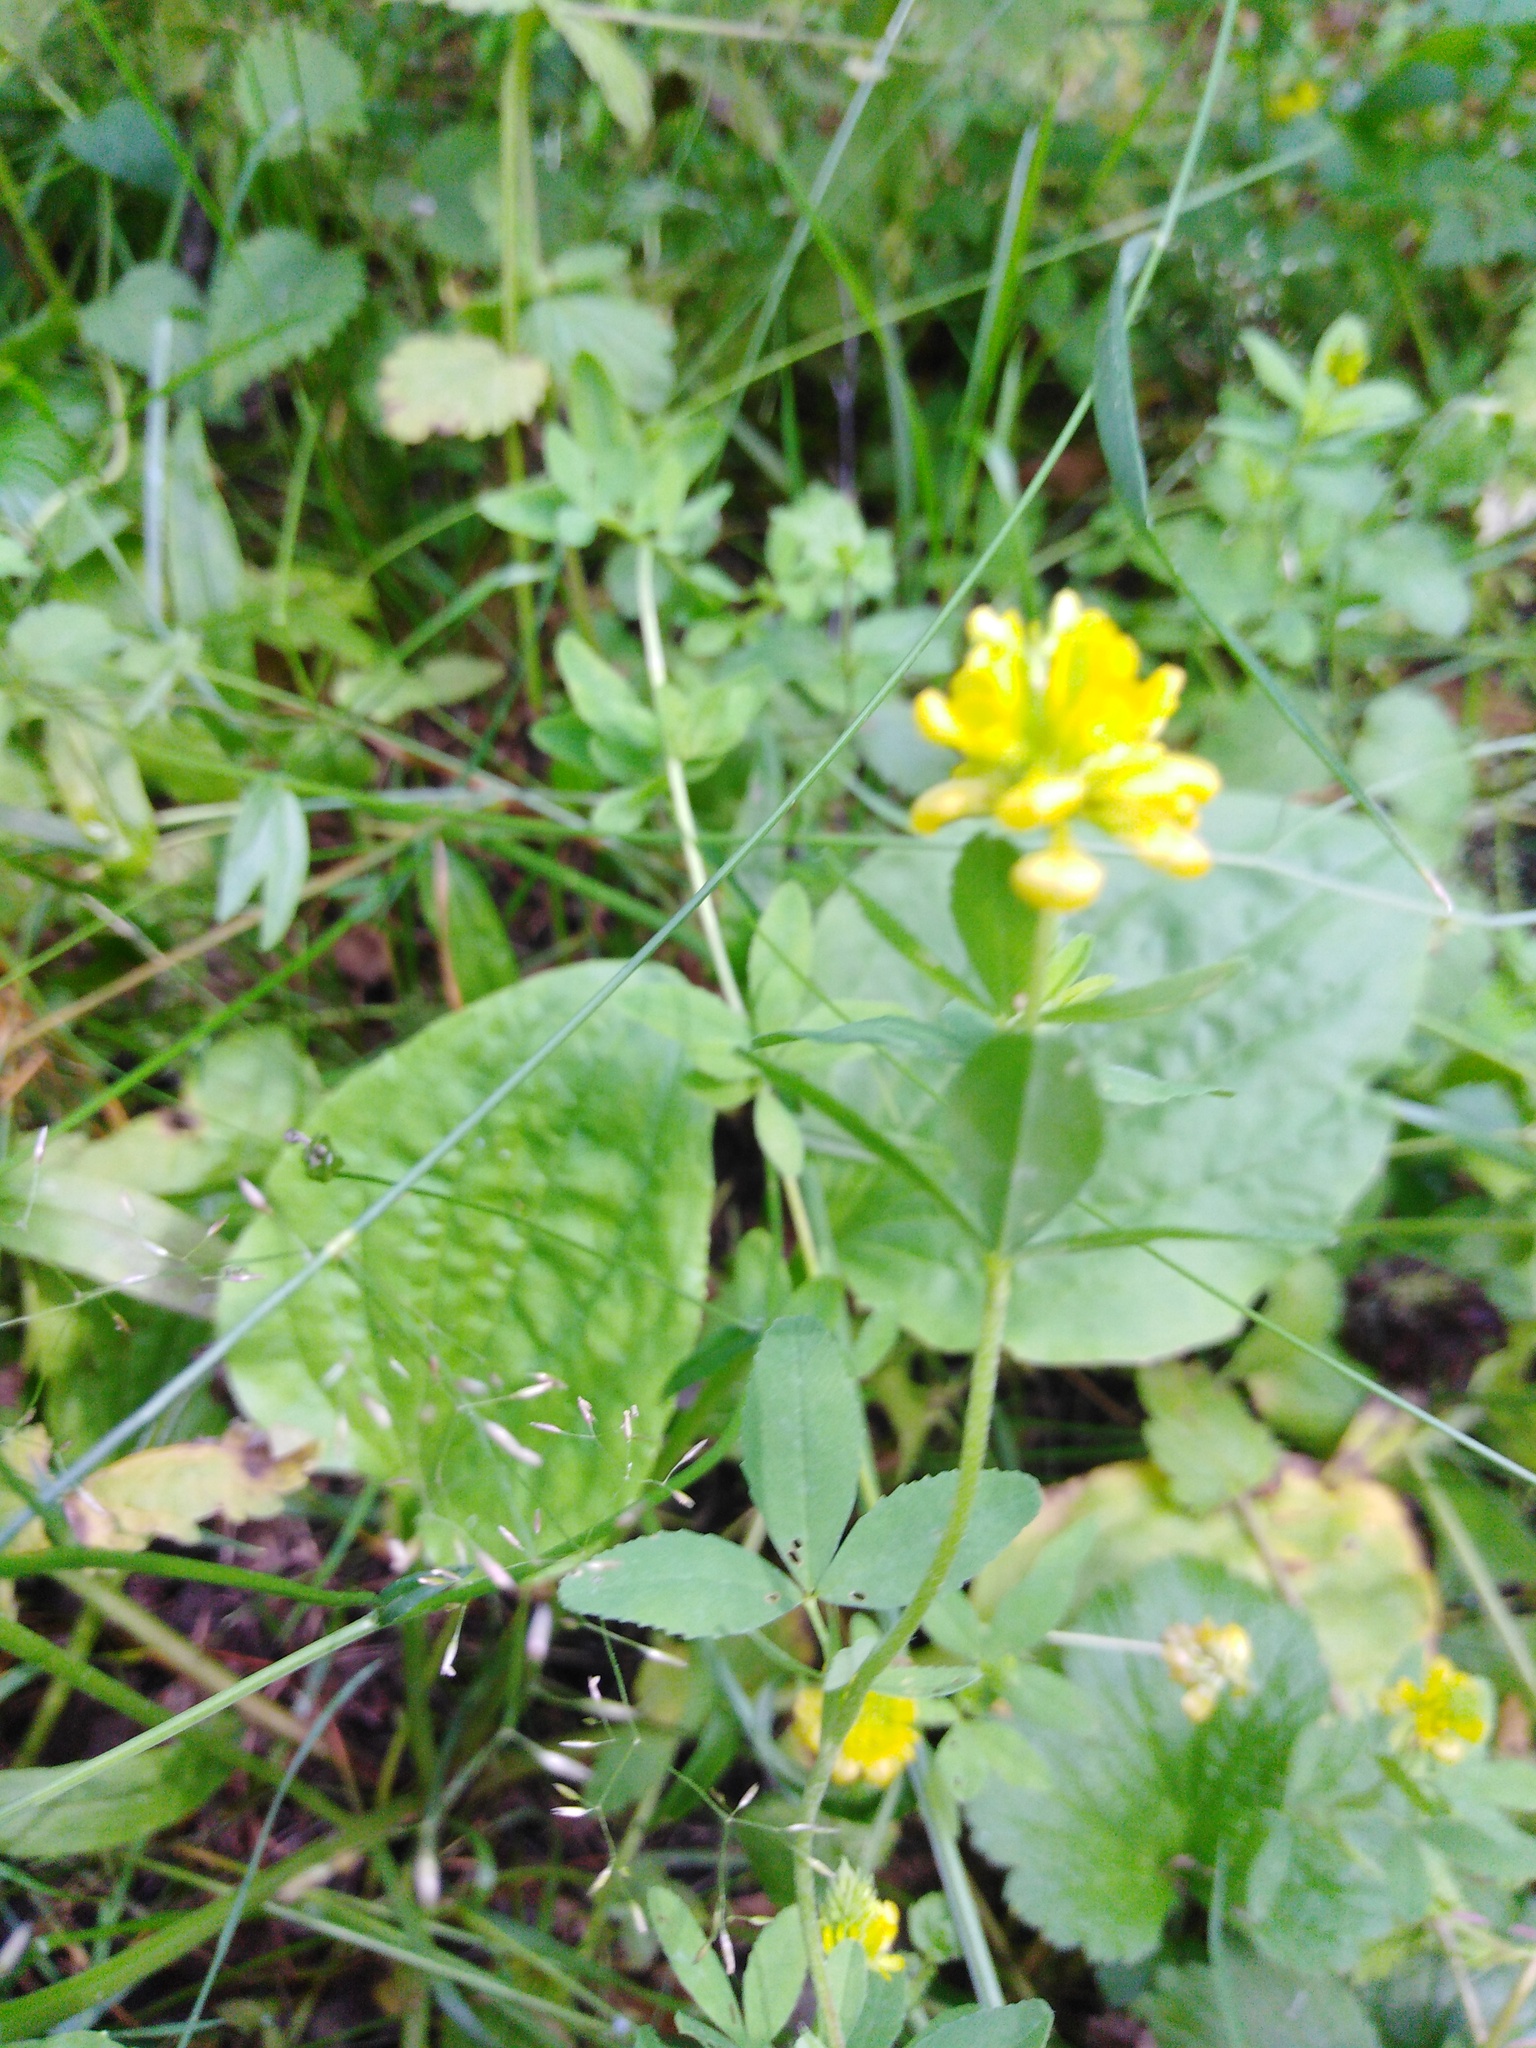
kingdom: Plantae
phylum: Tracheophyta
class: Magnoliopsida
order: Fabales
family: Fabaceae
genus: Trifolium
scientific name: Trifolium aureum
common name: Golden clover
